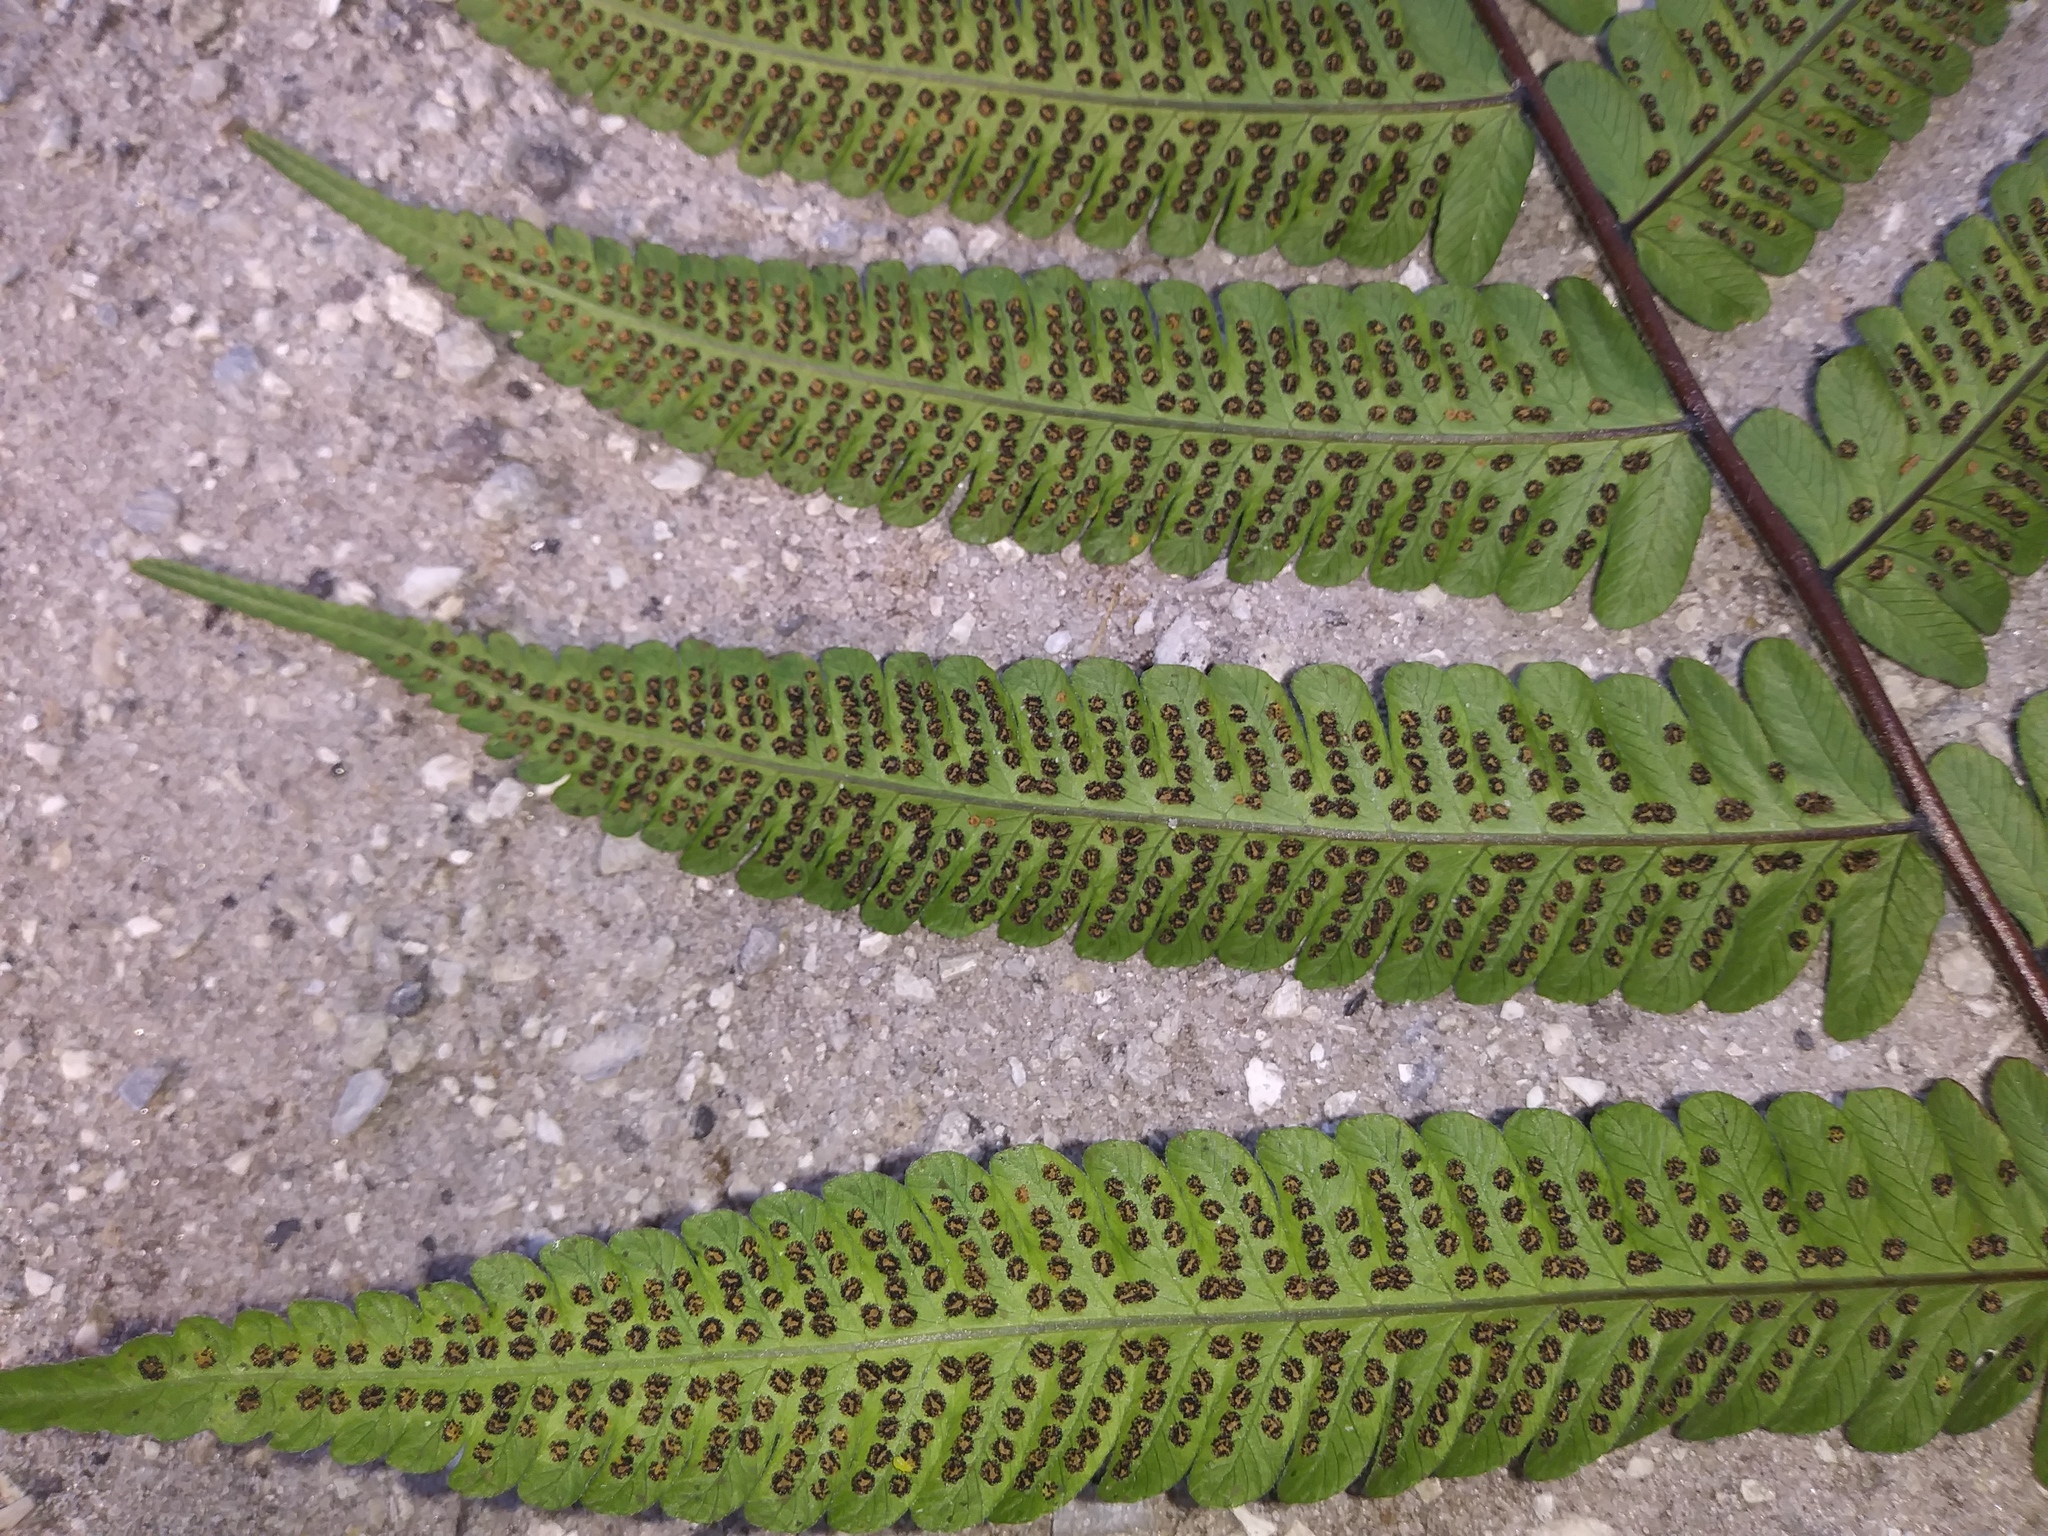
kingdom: Plantae
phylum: Tracheophyta
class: Polypodiopsida
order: Polypodiales
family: Thelypteridaceae
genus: Christella
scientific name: Christella dentata
